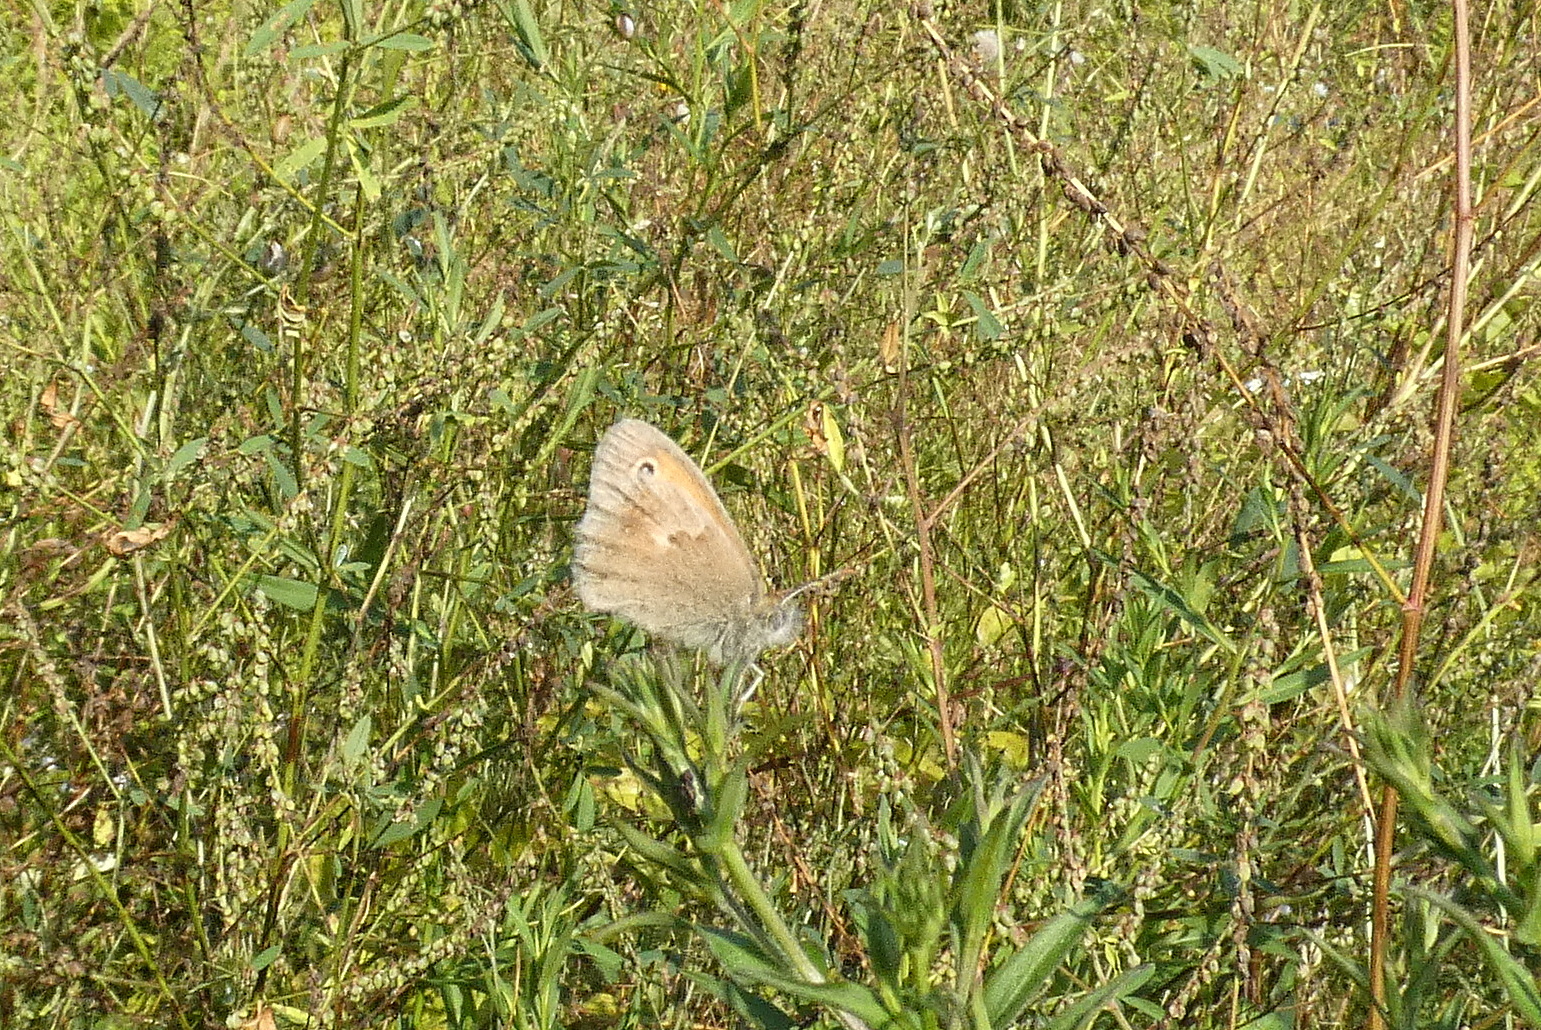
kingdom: Animalia
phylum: Arthropoda
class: Insecta
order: Lepidoptera
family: Nymphalidae
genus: Coenonympha
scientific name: Coenonympha pamphilus
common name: Small heath
